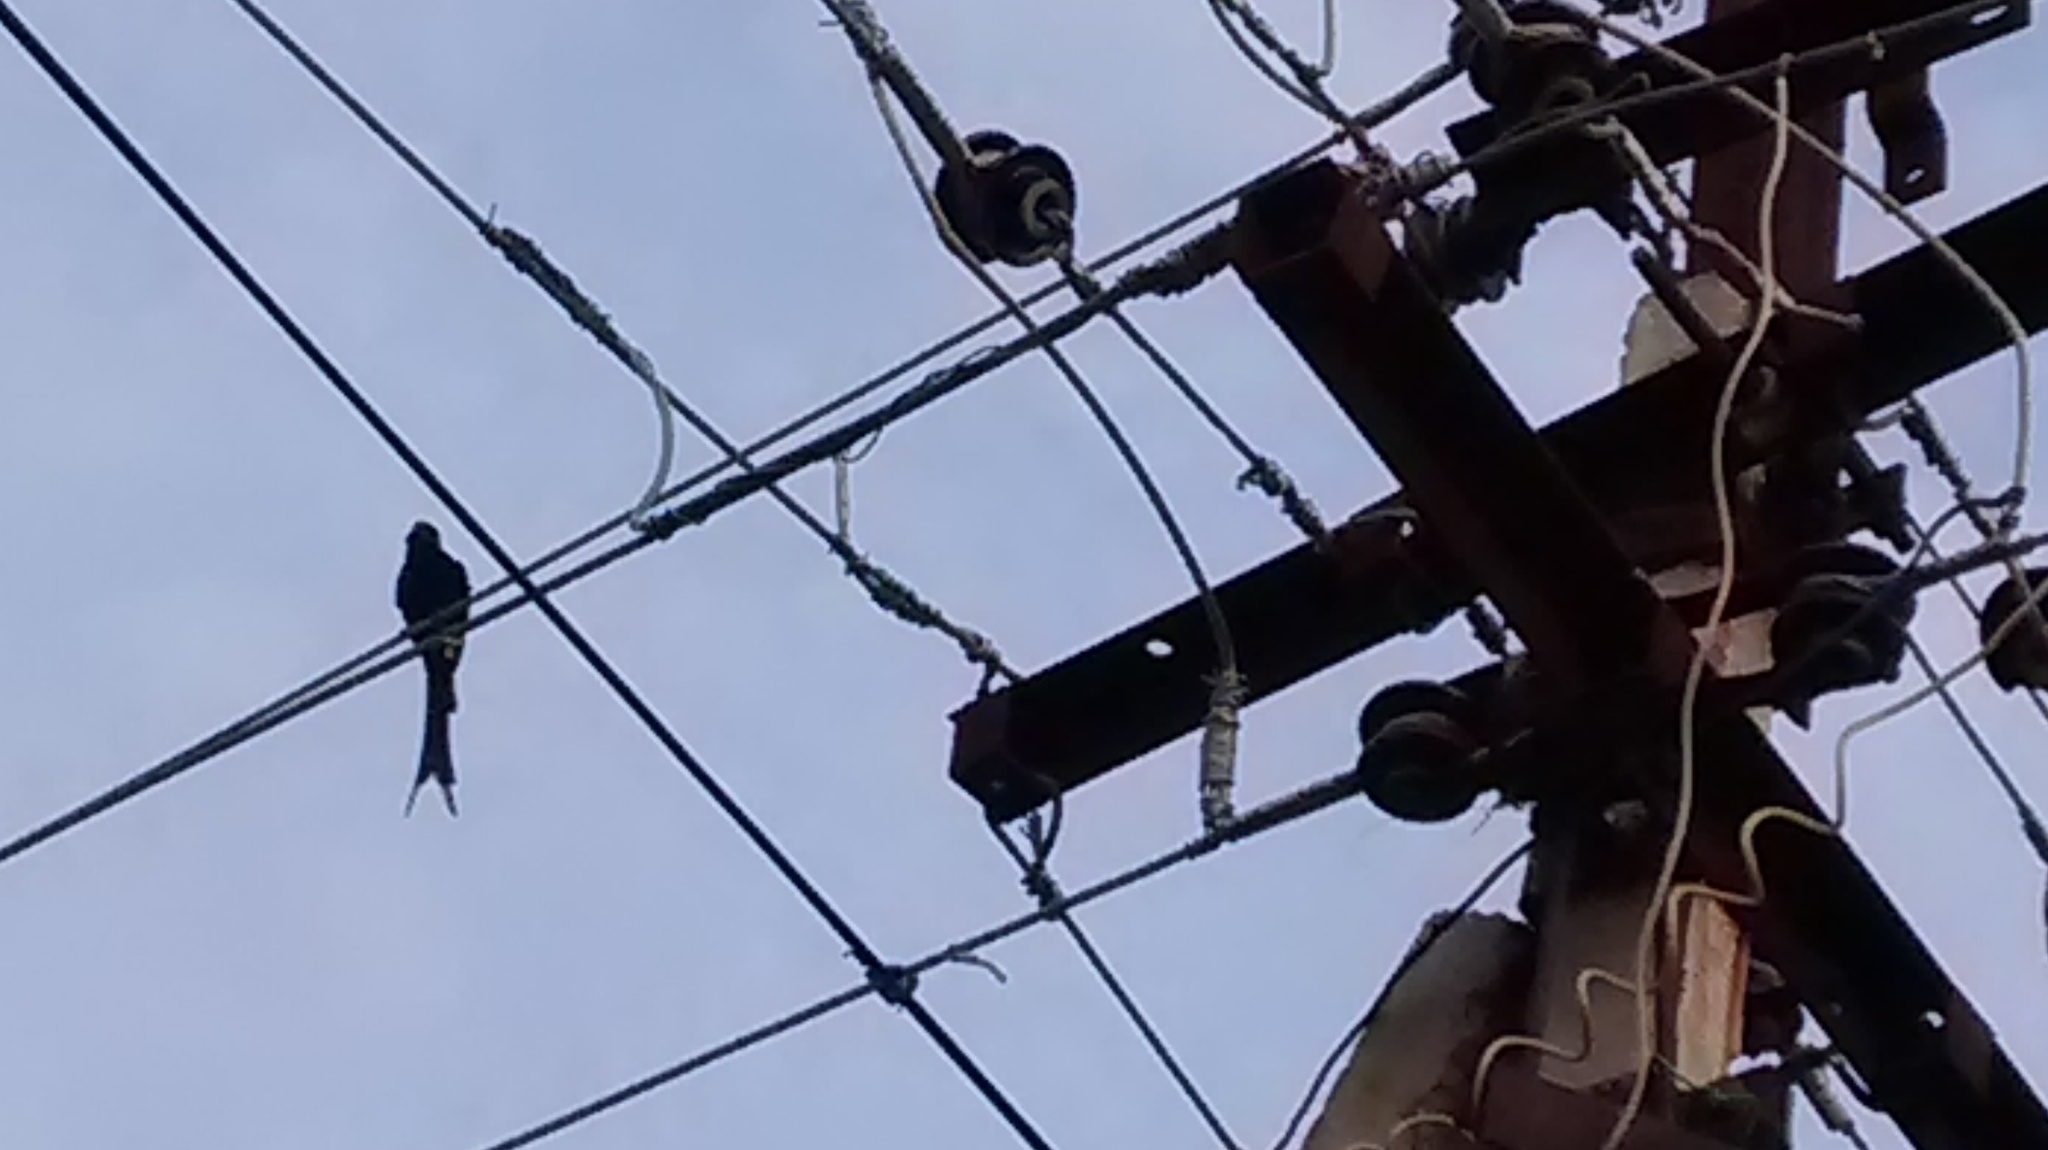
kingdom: Animalia
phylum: Chordata
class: Aves
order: Passeriformes
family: Dicruridae
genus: Dicrurus
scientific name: Dicrurus macrocercus
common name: Black drongo
